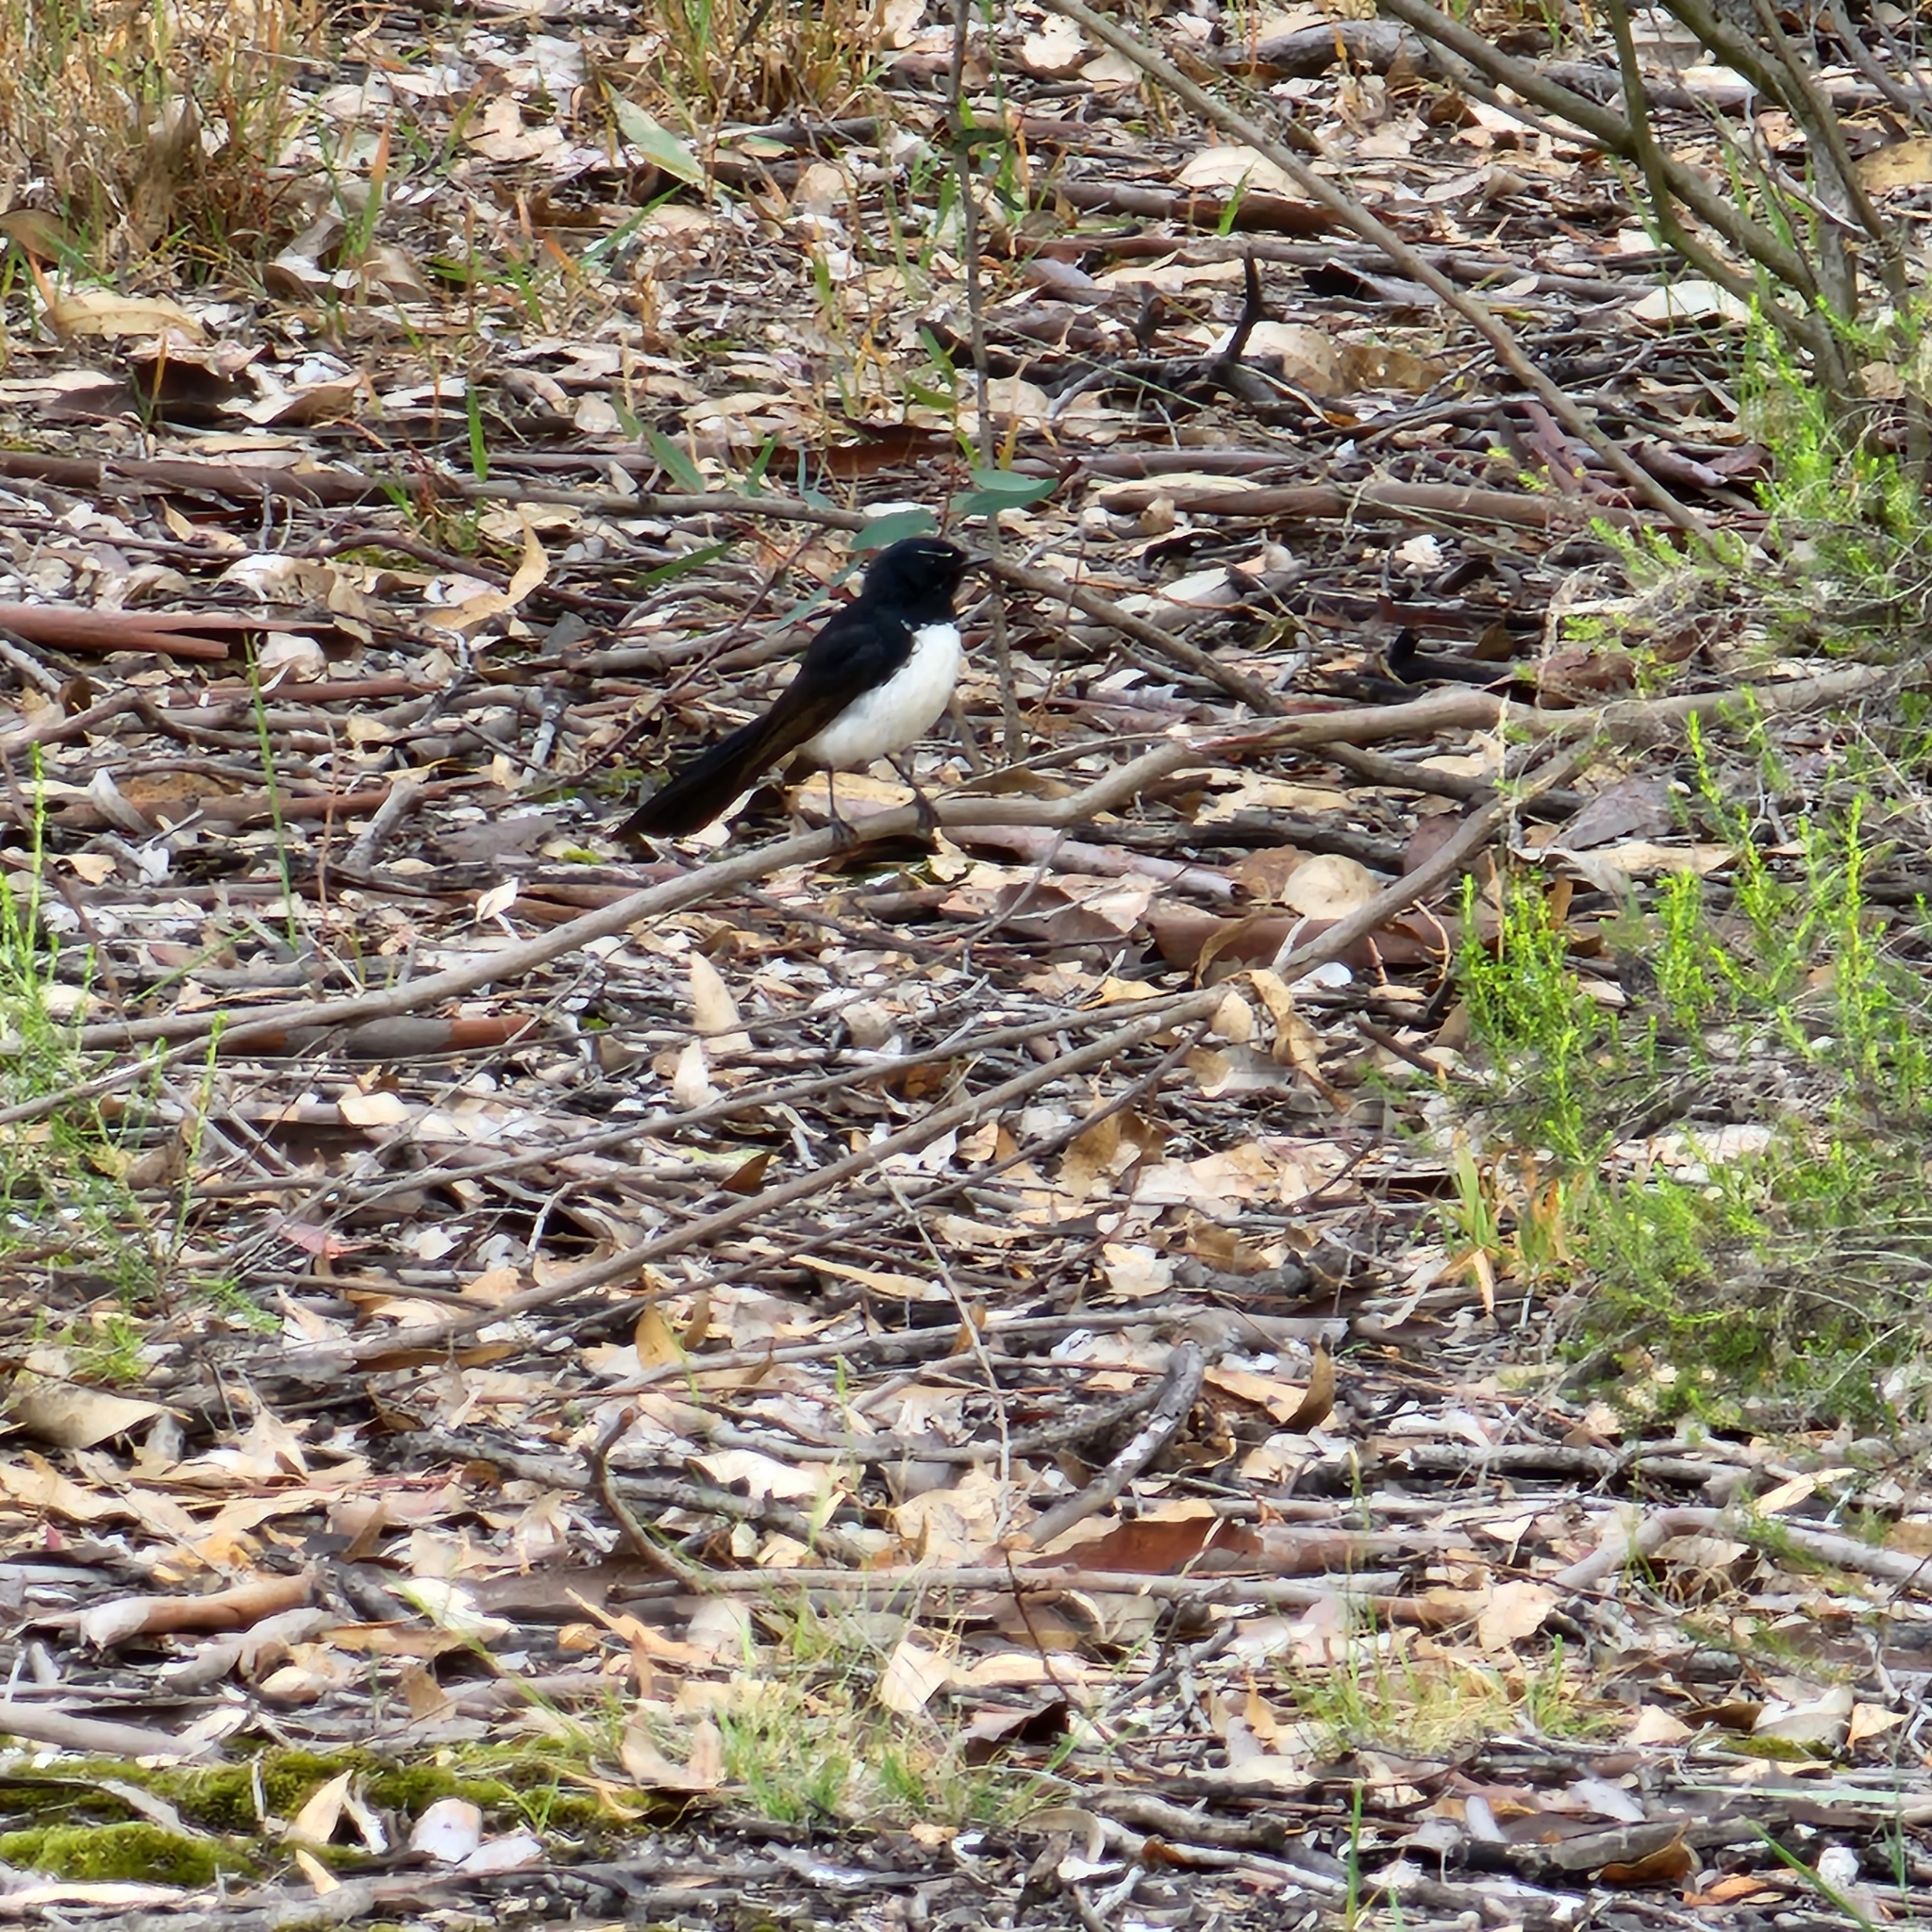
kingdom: Animalia
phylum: Chordata
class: Aves
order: Passeriformes
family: Rhipiduridae
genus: Rhipidura
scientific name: Rhipidura leucophrys
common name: Willie wagtail
